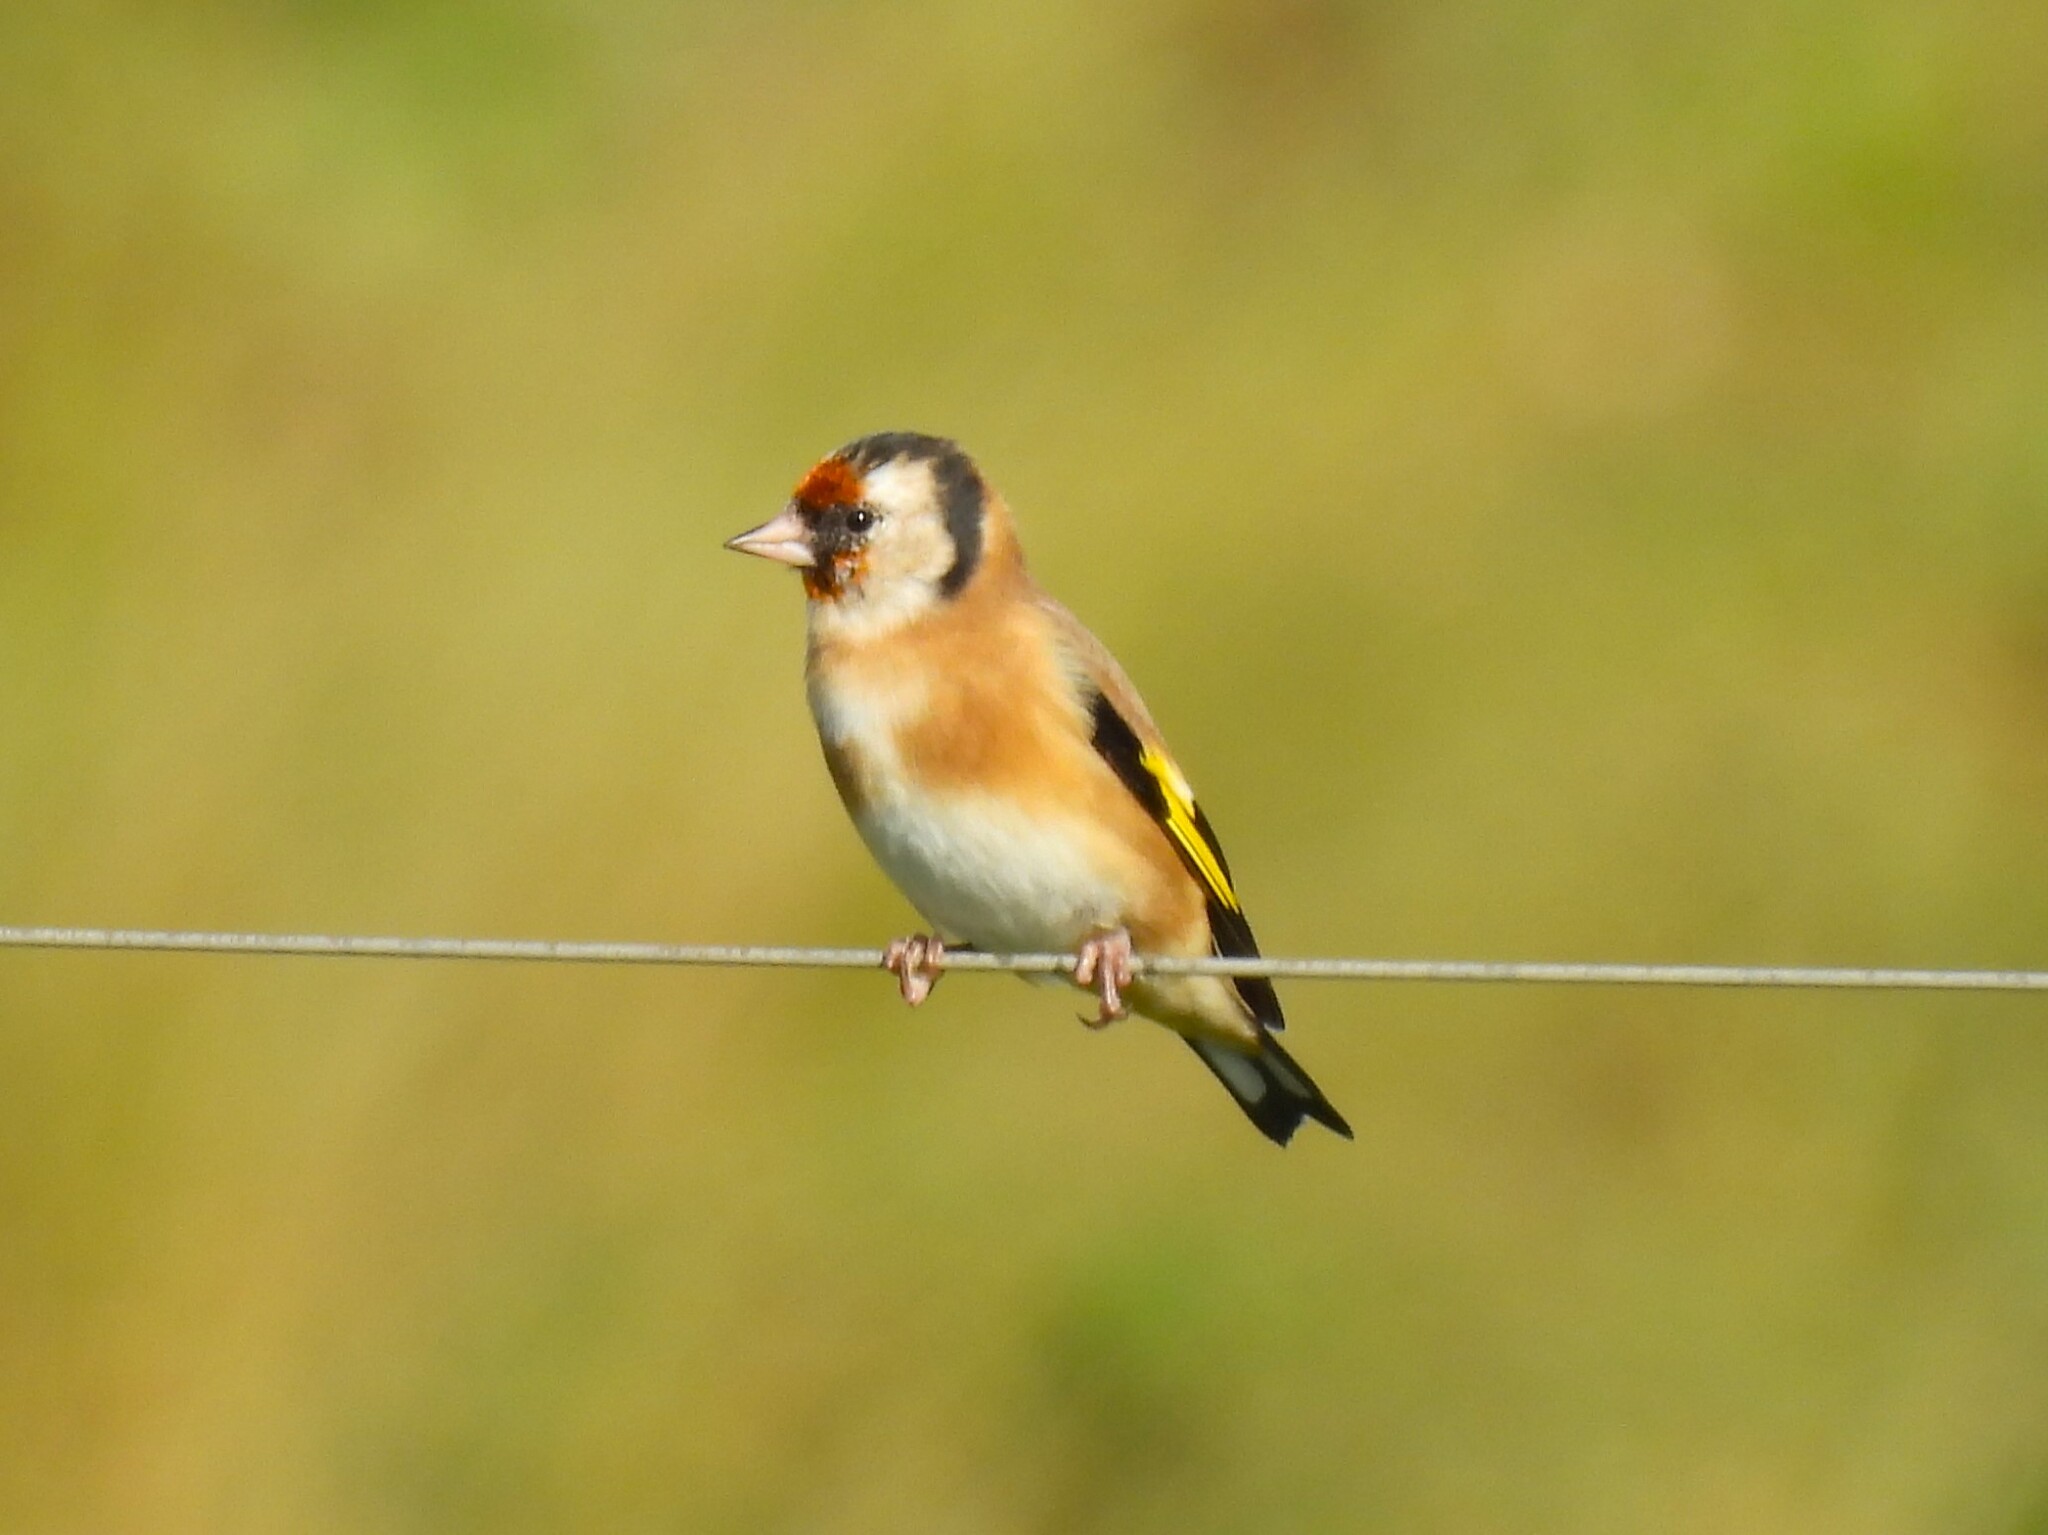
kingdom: Animalia
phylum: Chordata
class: Aves
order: Passeriformes
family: Fringillidae
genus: Carduelis
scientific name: Carduelis carduelis
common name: European goldfinch
